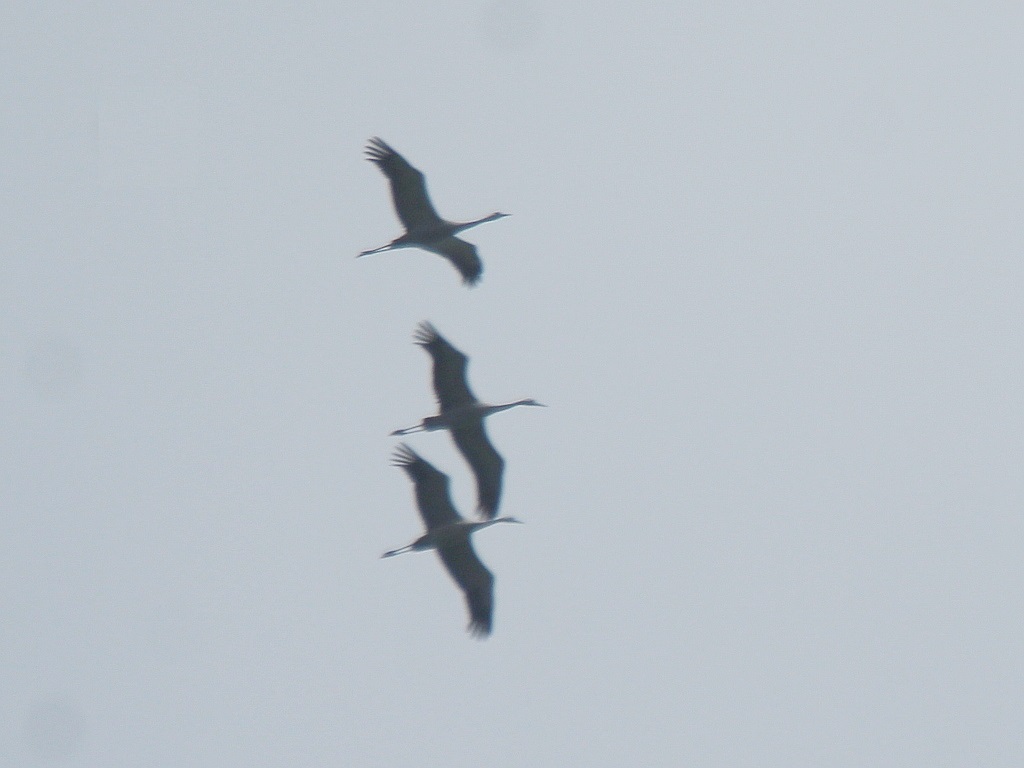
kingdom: Animalia
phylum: Chordata
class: Aves
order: Gruiformes
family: Gruidae
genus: Grus
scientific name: Grus grus
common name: Common crane
